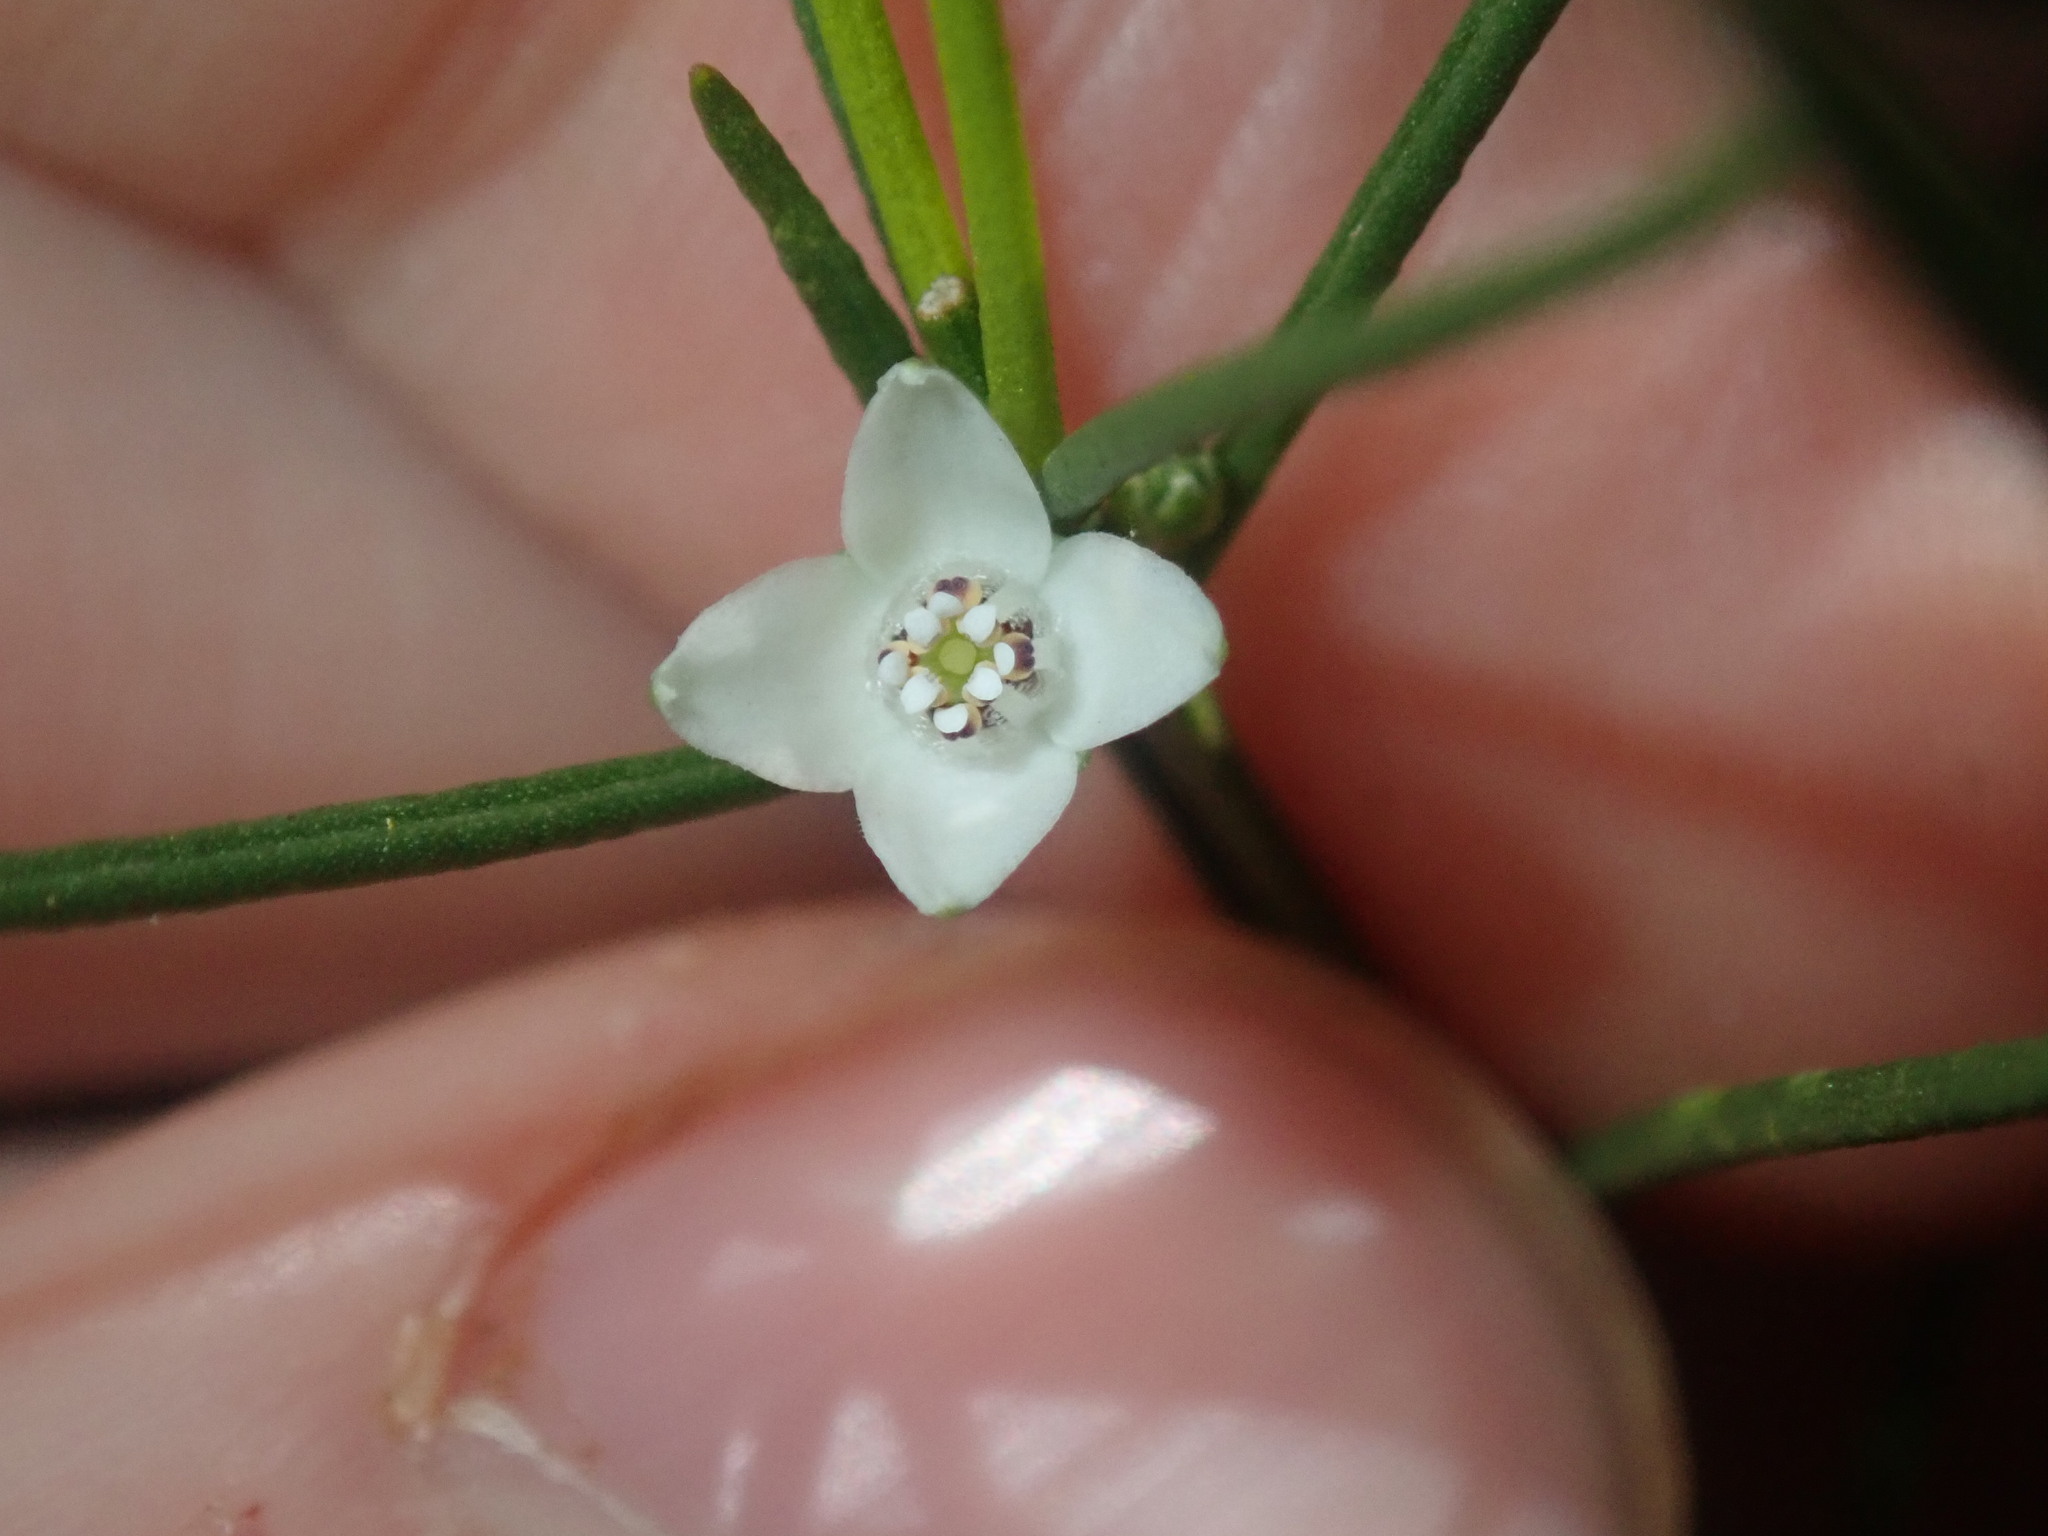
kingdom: Plantae
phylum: Tracheophyta
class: Magnoliopsida
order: Sapindales
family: Rutaceae
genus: Cyanothamnus
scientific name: Cyanothamnus subsessilis
